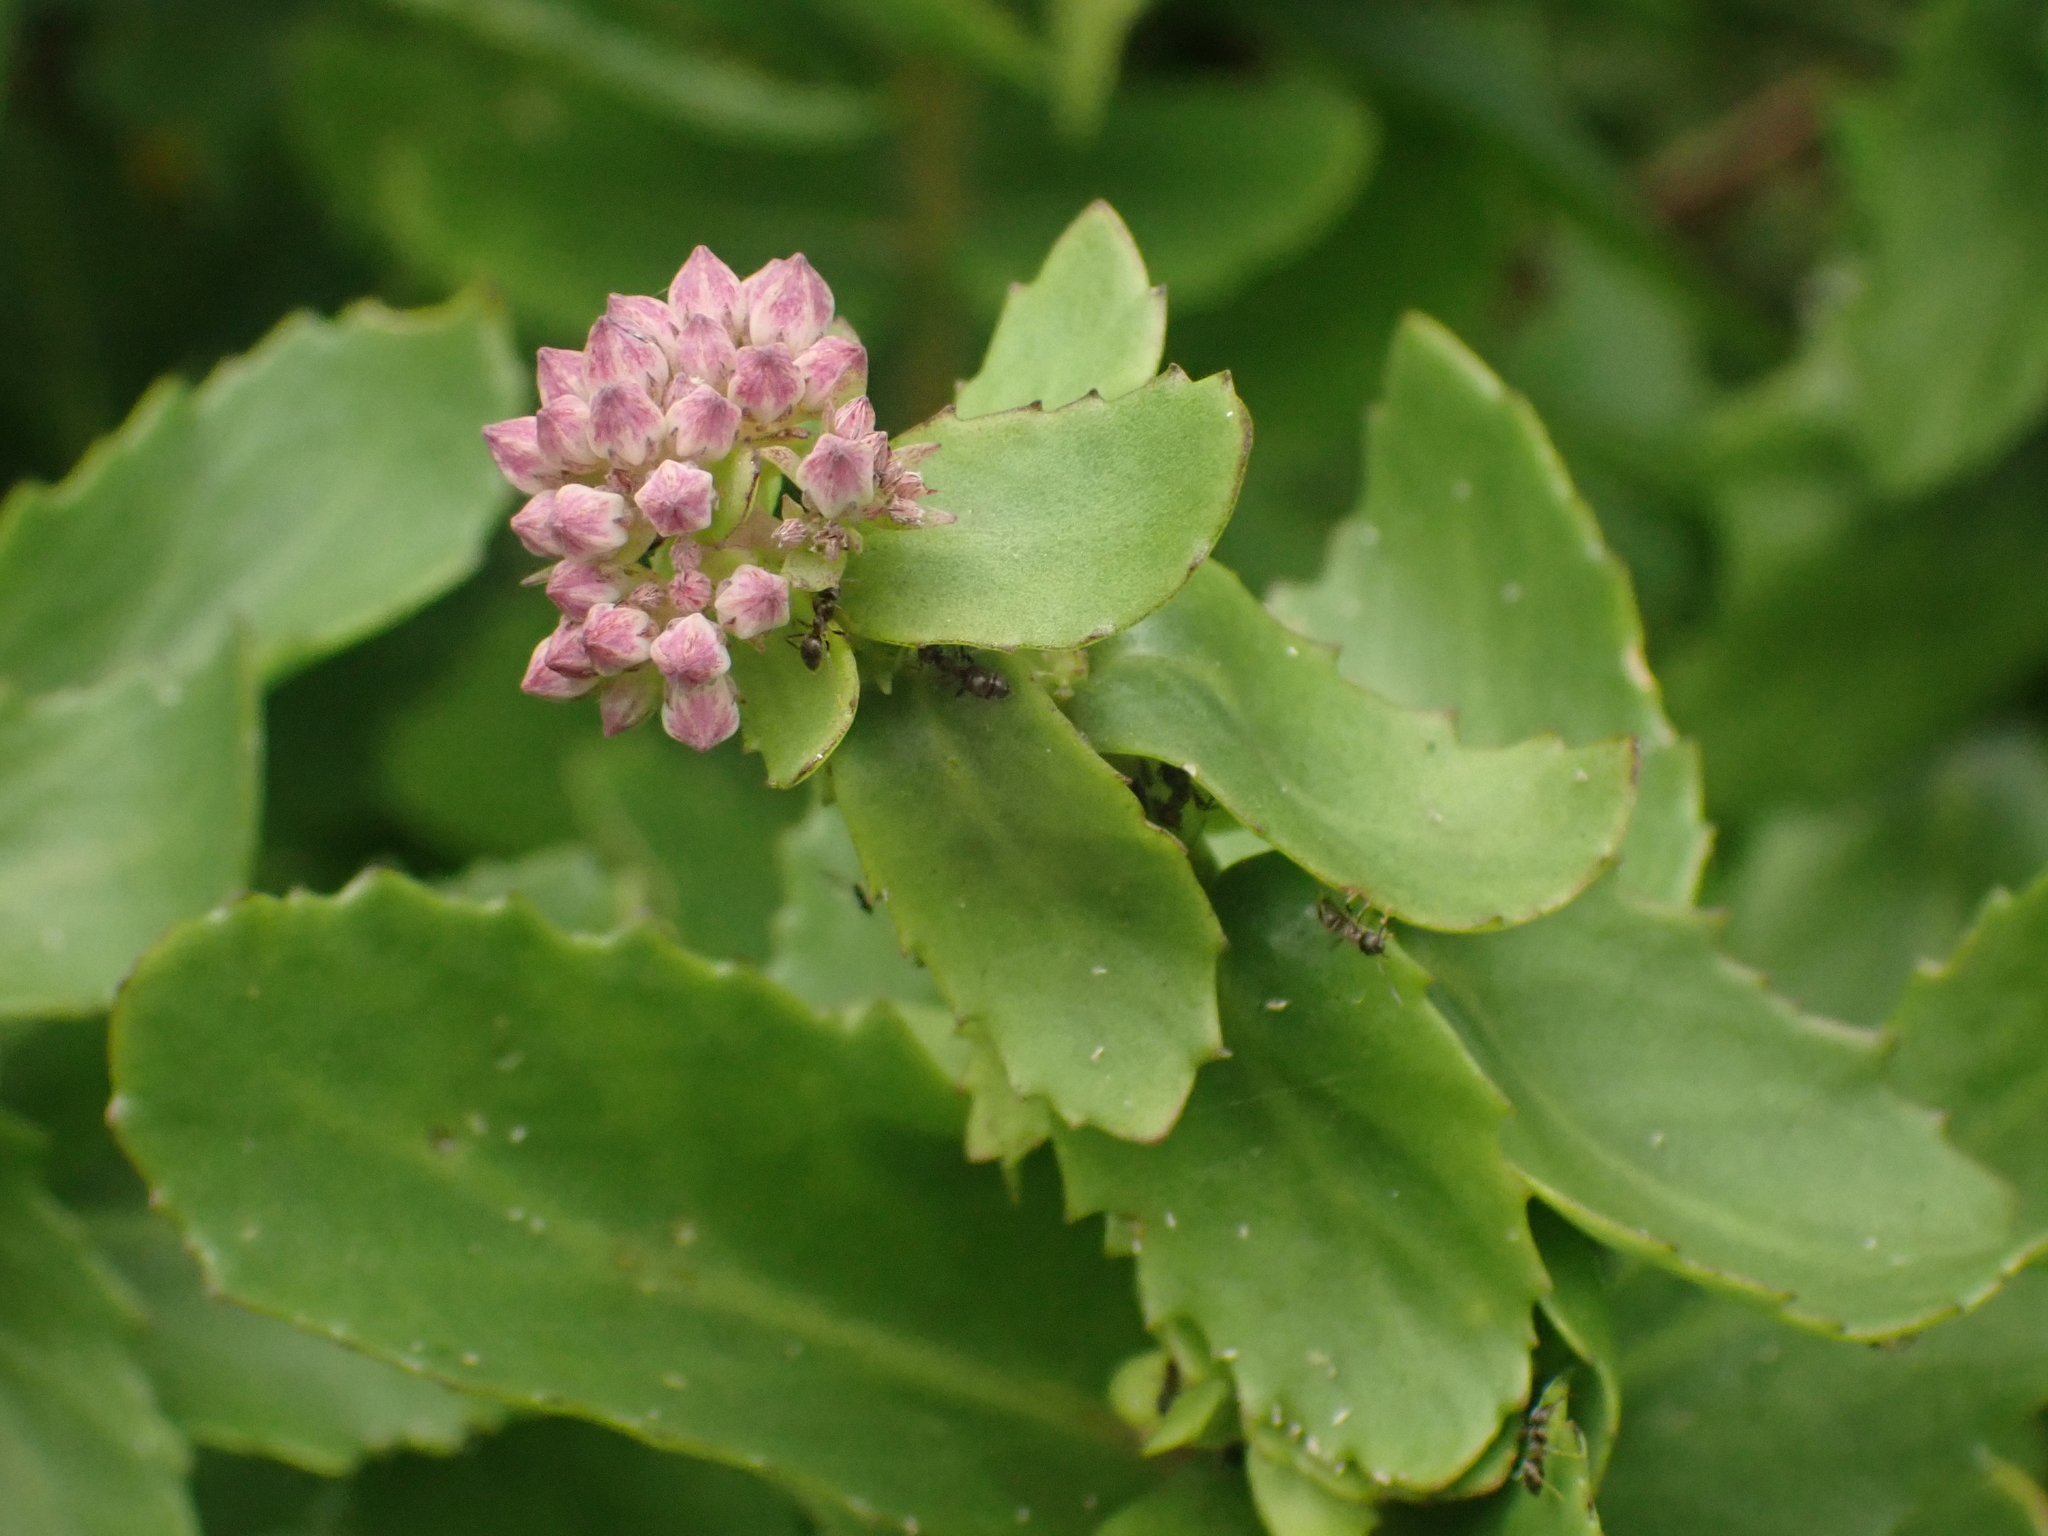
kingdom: Plantae
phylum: Tracheophyta
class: Magnoliopsida
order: Saxifragales
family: Crassulaceae
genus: Hylotelephium
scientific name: Hylotelephium telephium
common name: Live-forever
